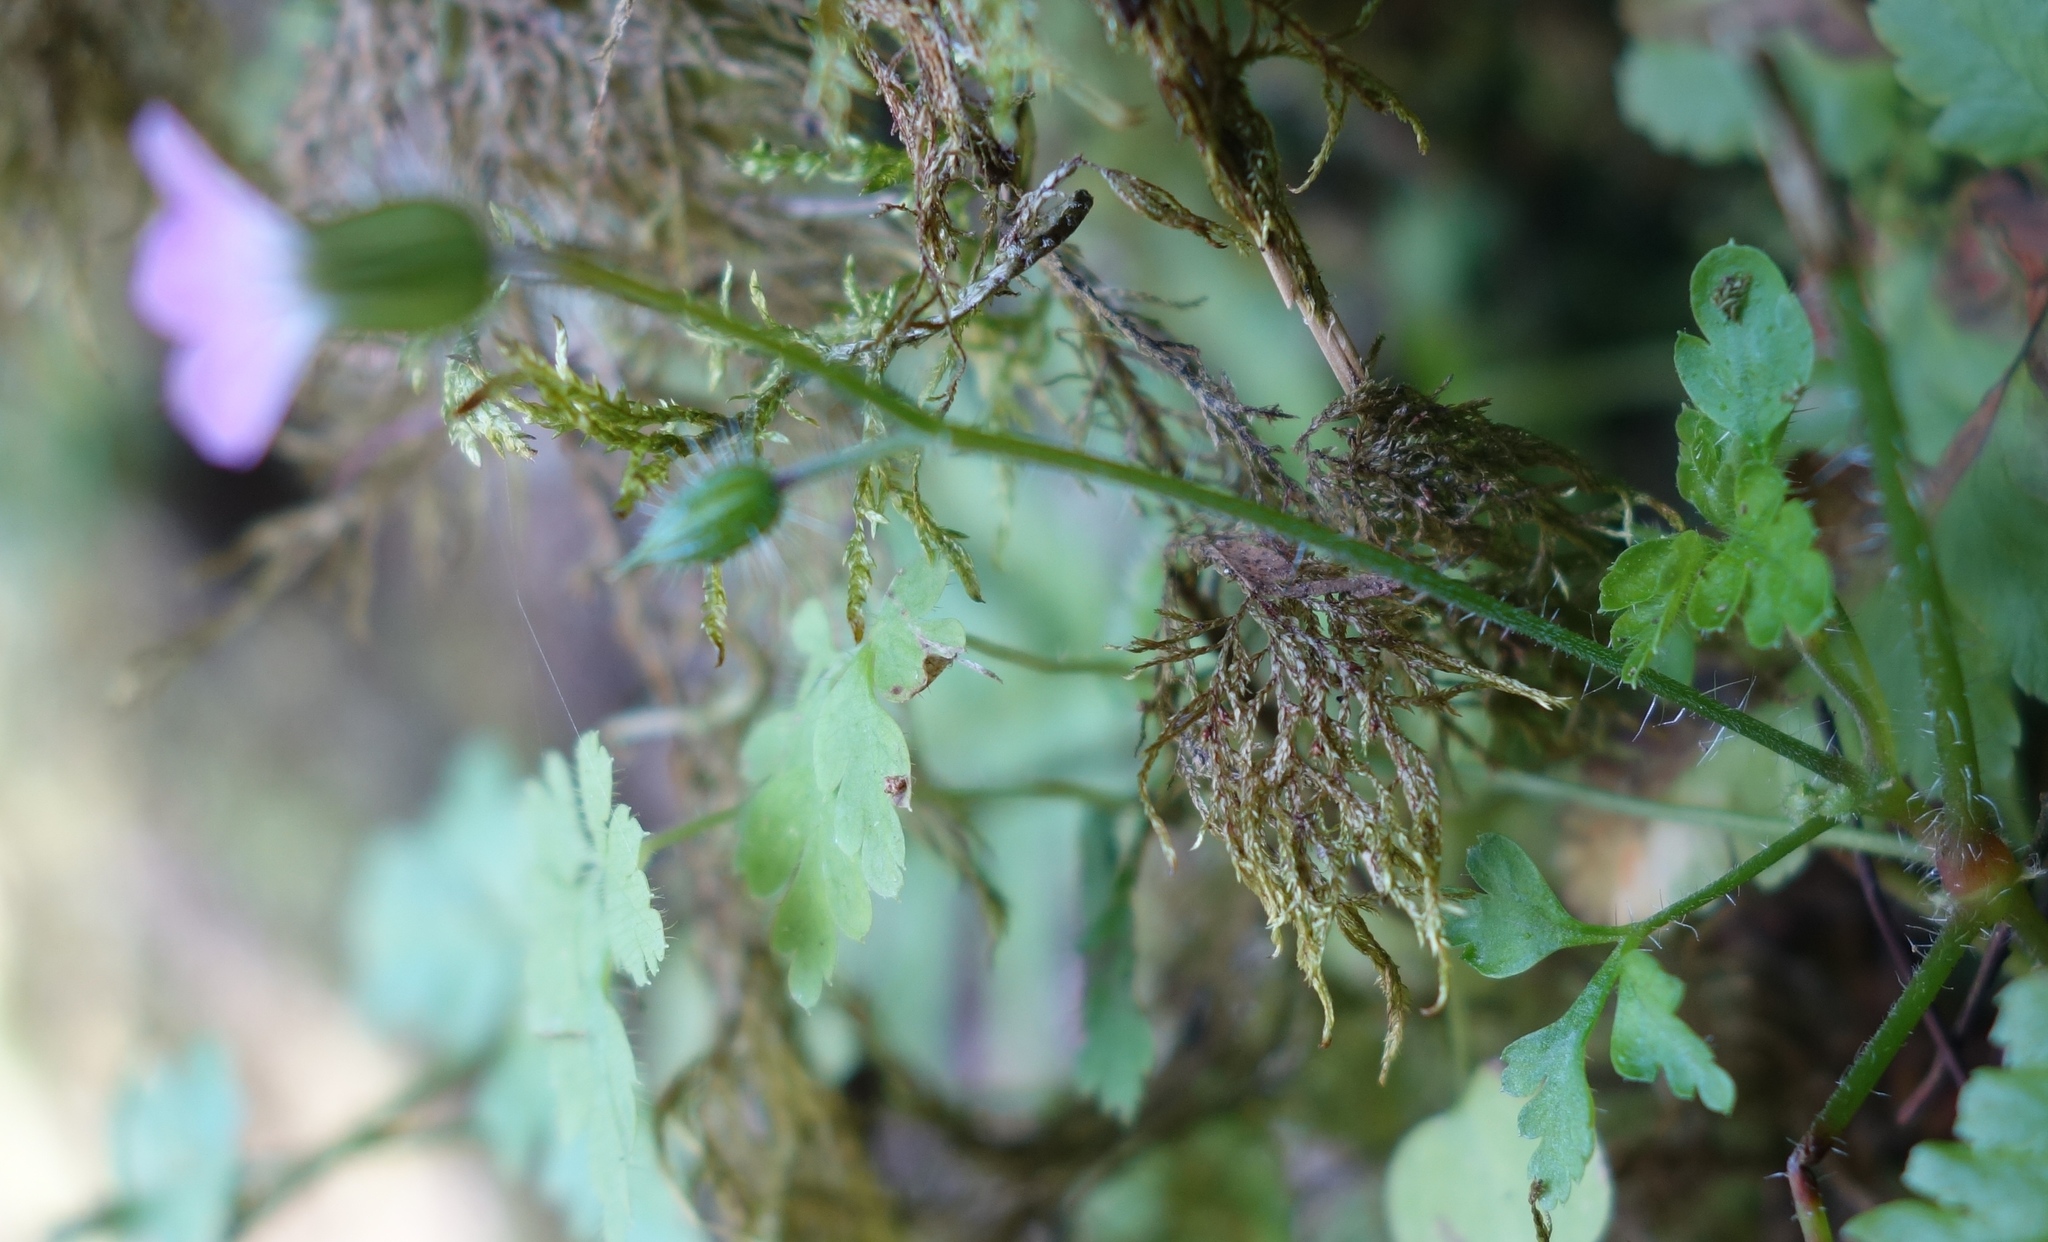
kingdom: Plantae
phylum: Tracheophyta
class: Magnoliopsida
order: Geraniales
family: Geraniaceae
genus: Geranium
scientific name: Geranium robertianum
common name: Herb-robert
